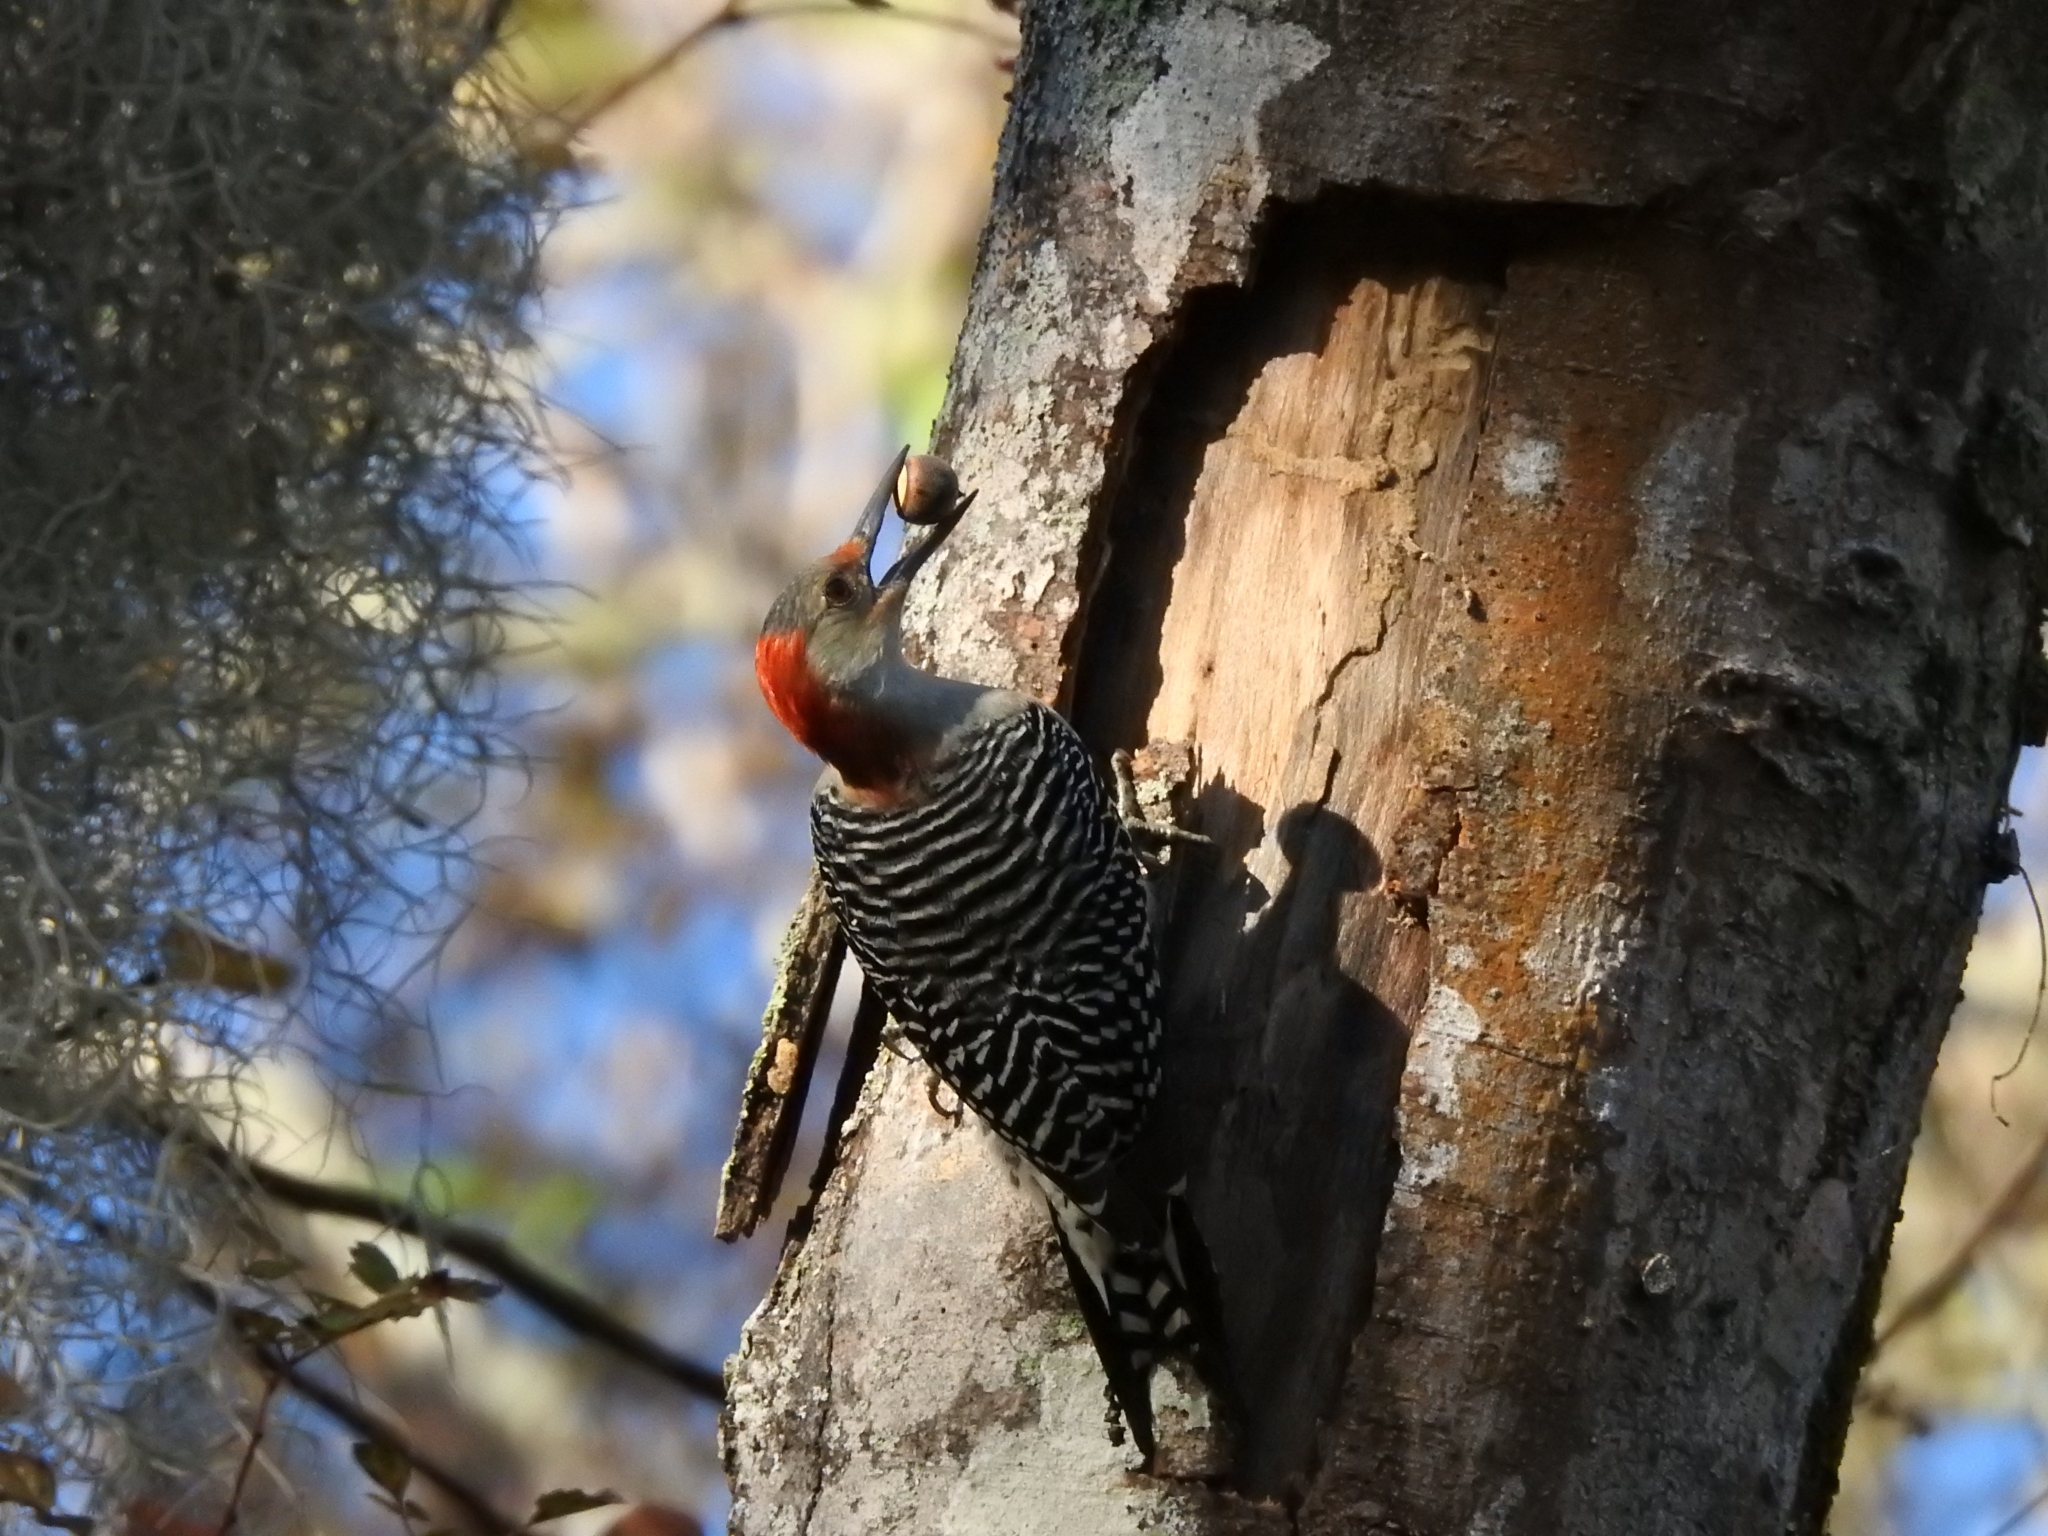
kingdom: Animalia
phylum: Chordata
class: Aves
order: Piciformes
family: Picidae
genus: Melanerpes
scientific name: Melanerpes carolinus
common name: Red-bellied woodpecker
